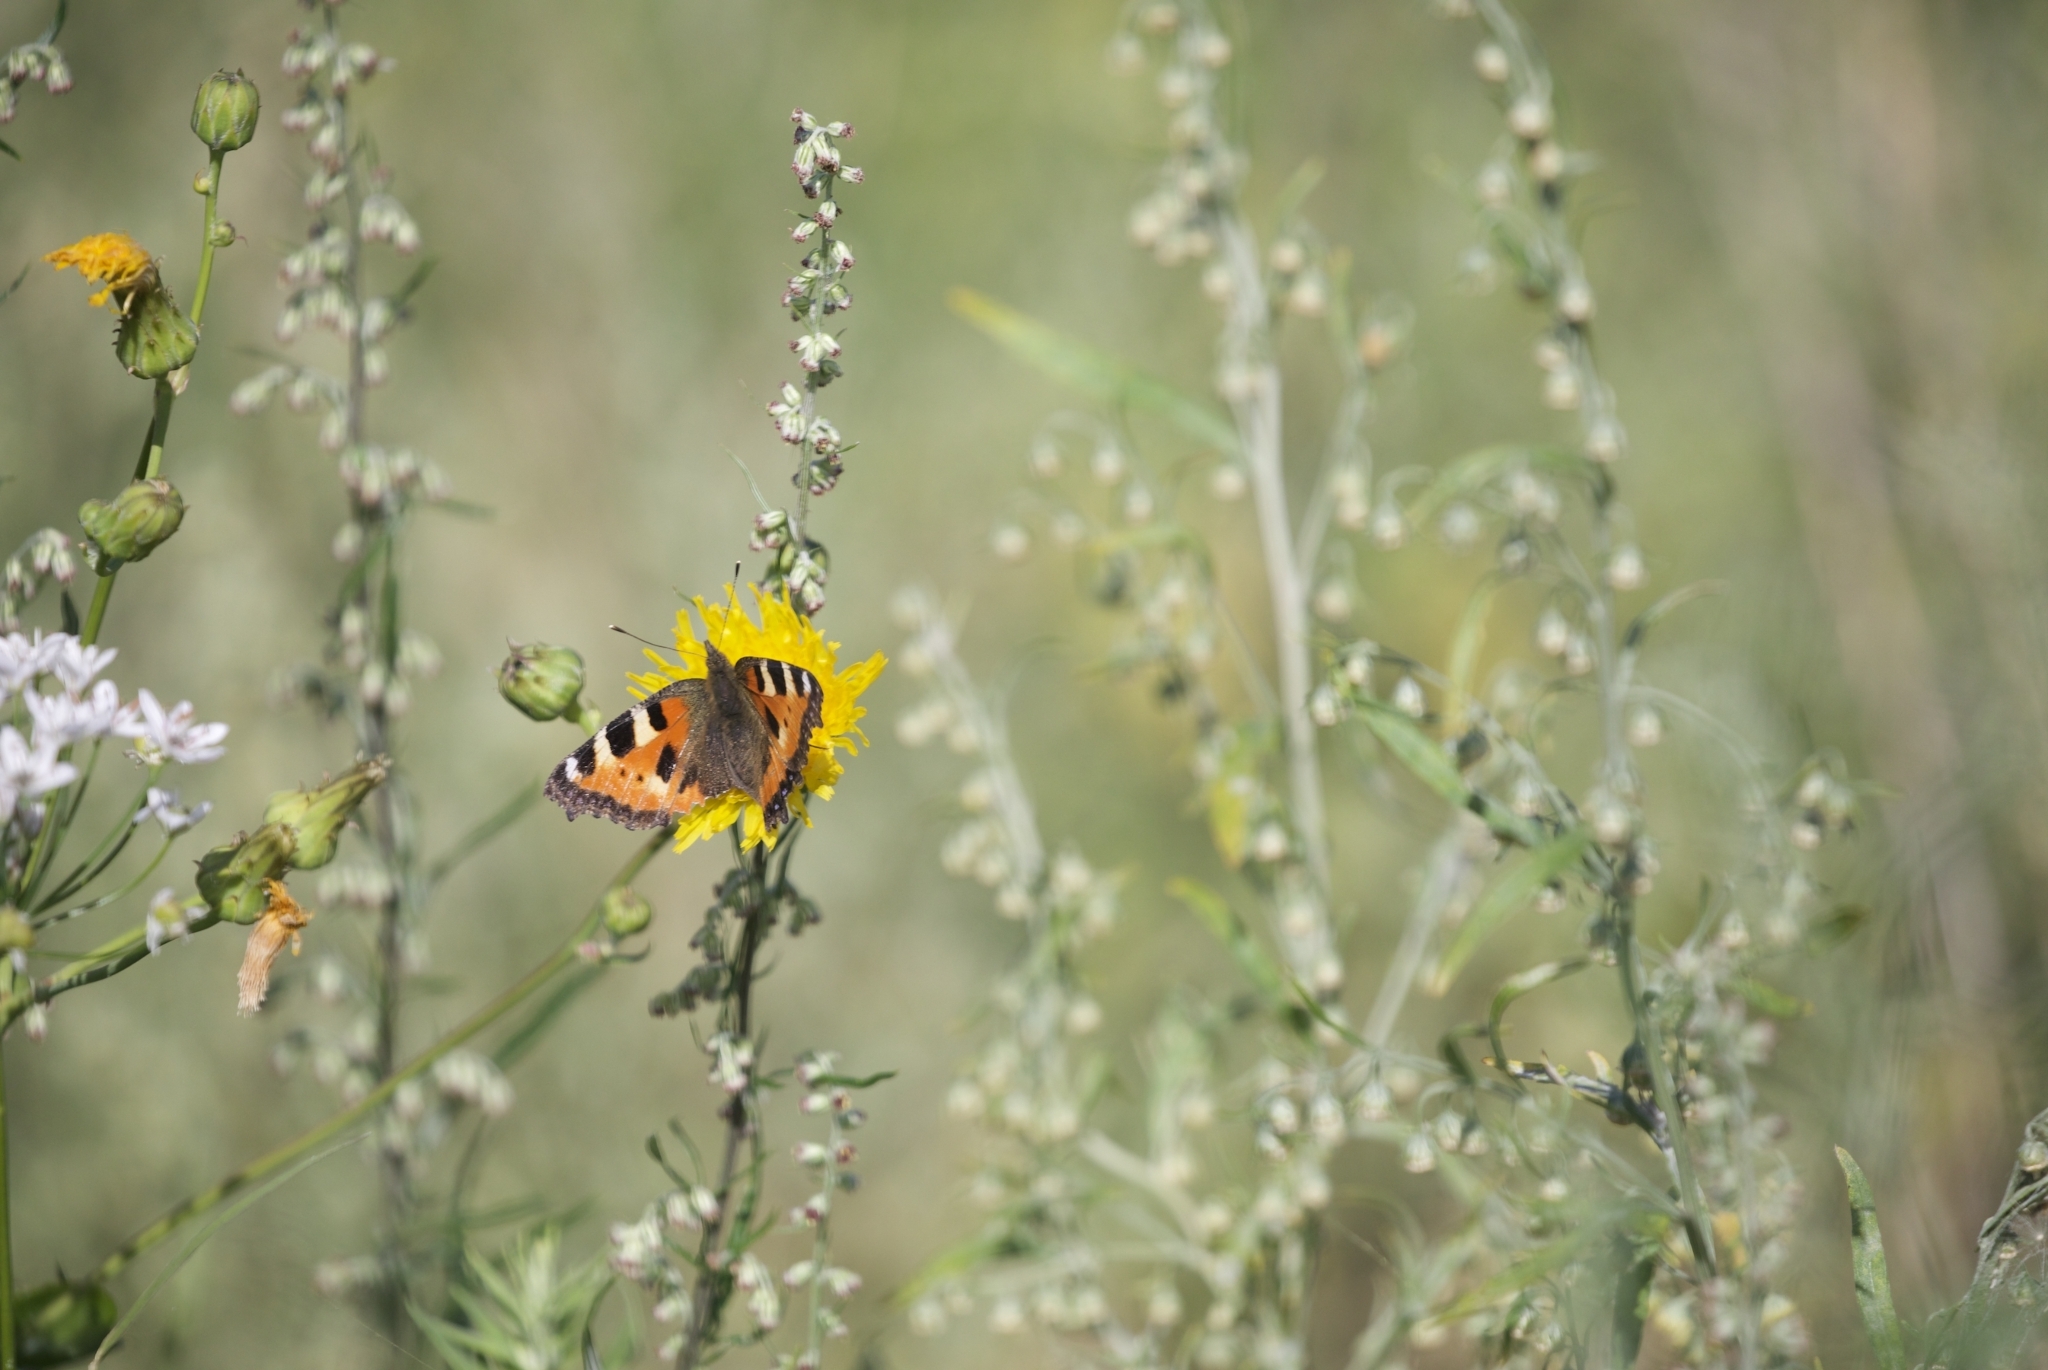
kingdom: Animalia
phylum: Arthropoda
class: Insecta
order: Lepidoptera
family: Nymphalidae
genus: Aglais
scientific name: Aglais urticae
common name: Small tortoiseshell
